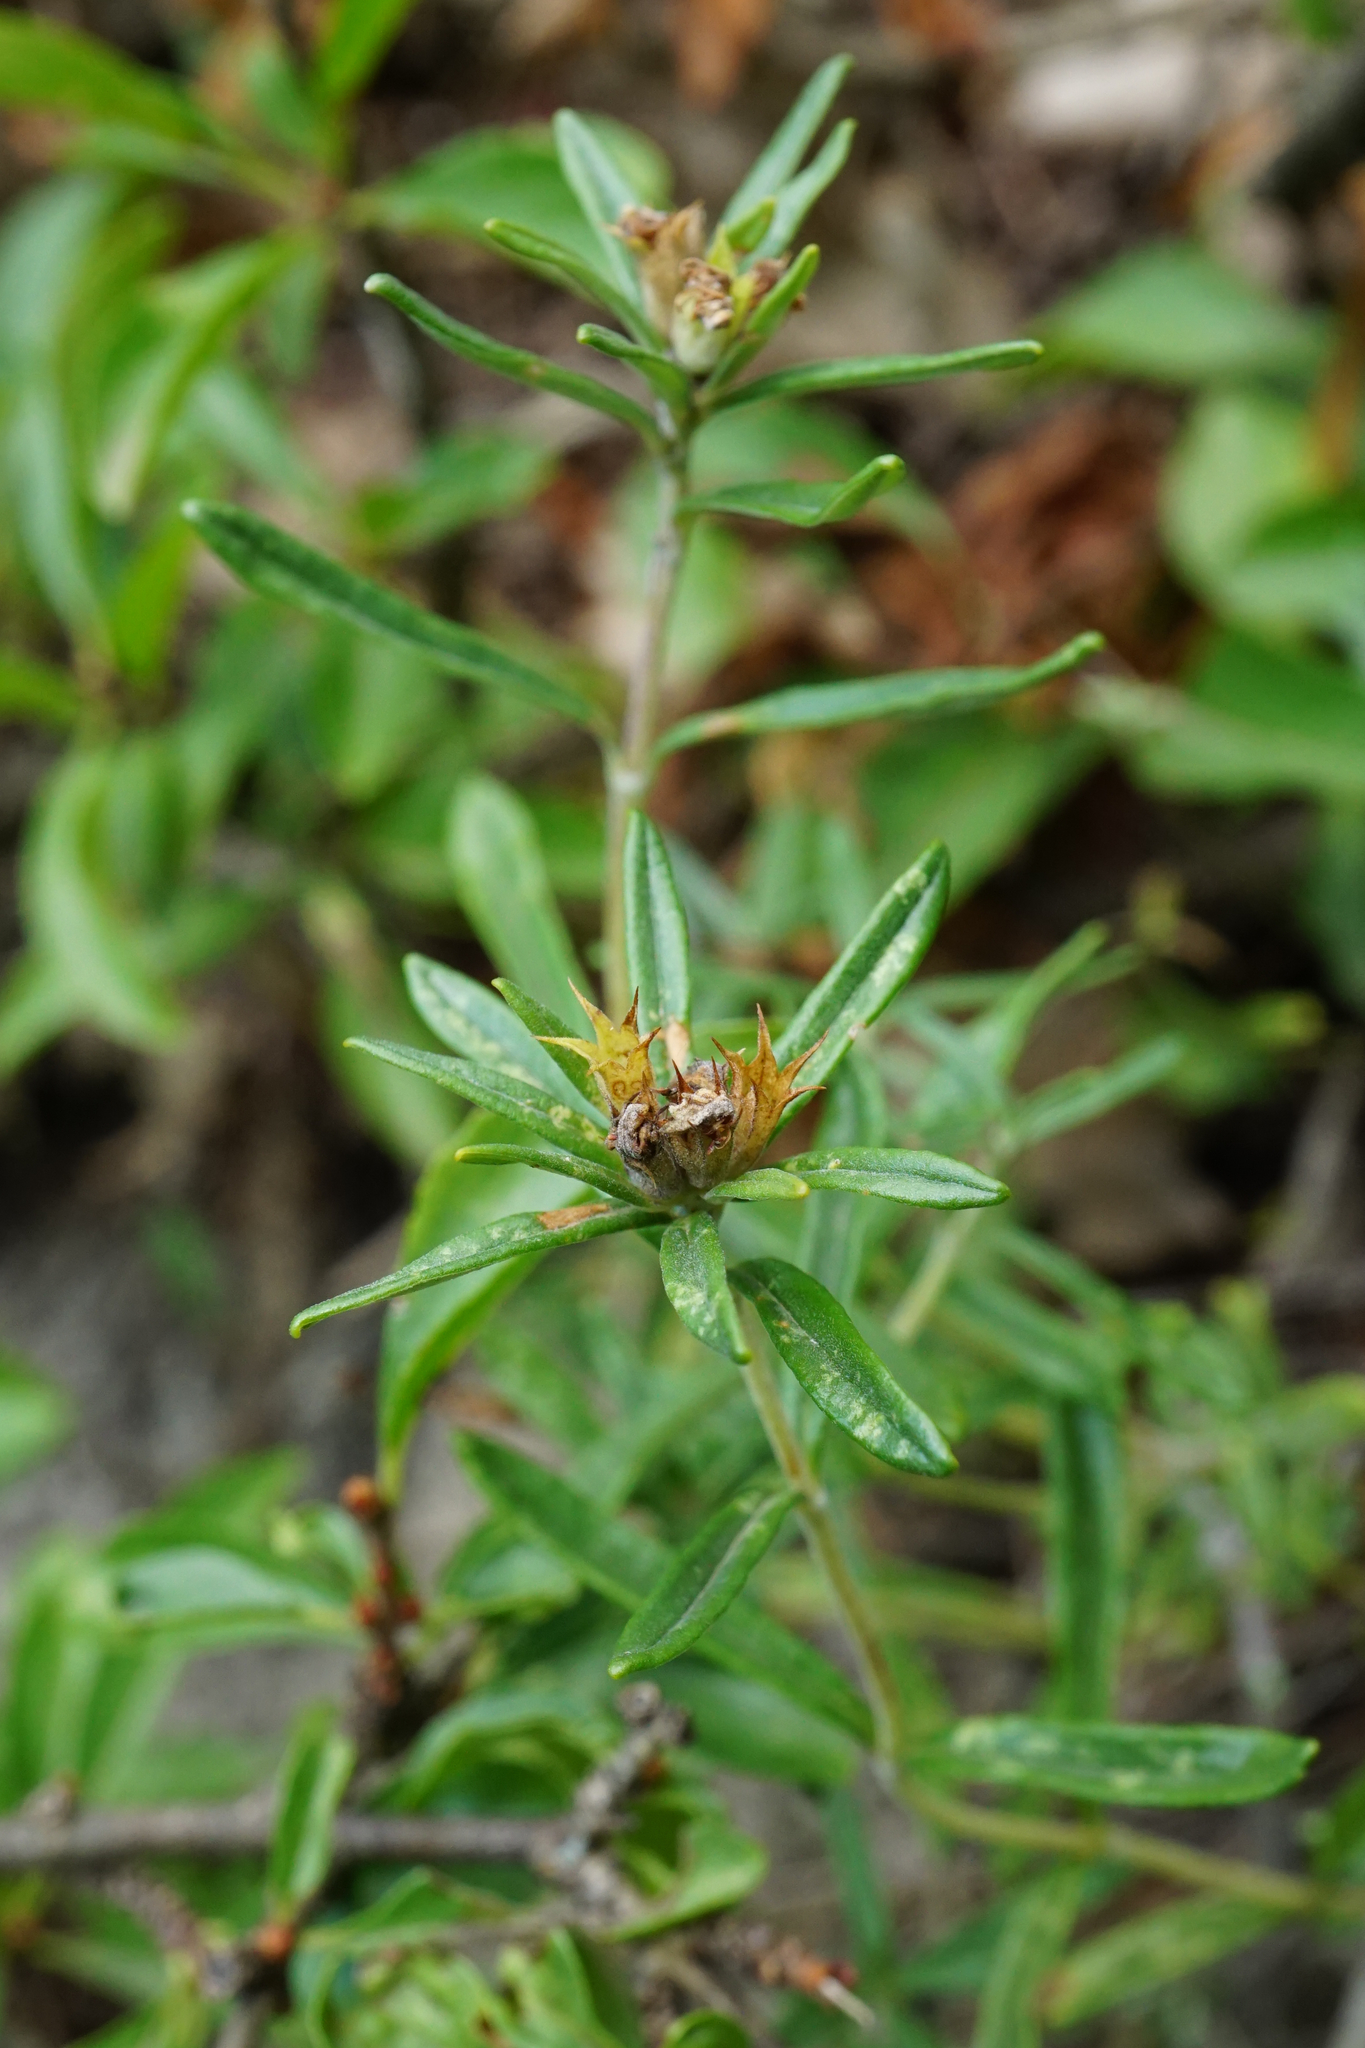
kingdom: Plantae
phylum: Tracheophyta
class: Magnoliopsida
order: Lamiales
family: Lamiaceae
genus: Teucrium
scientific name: Teucrium montanum
